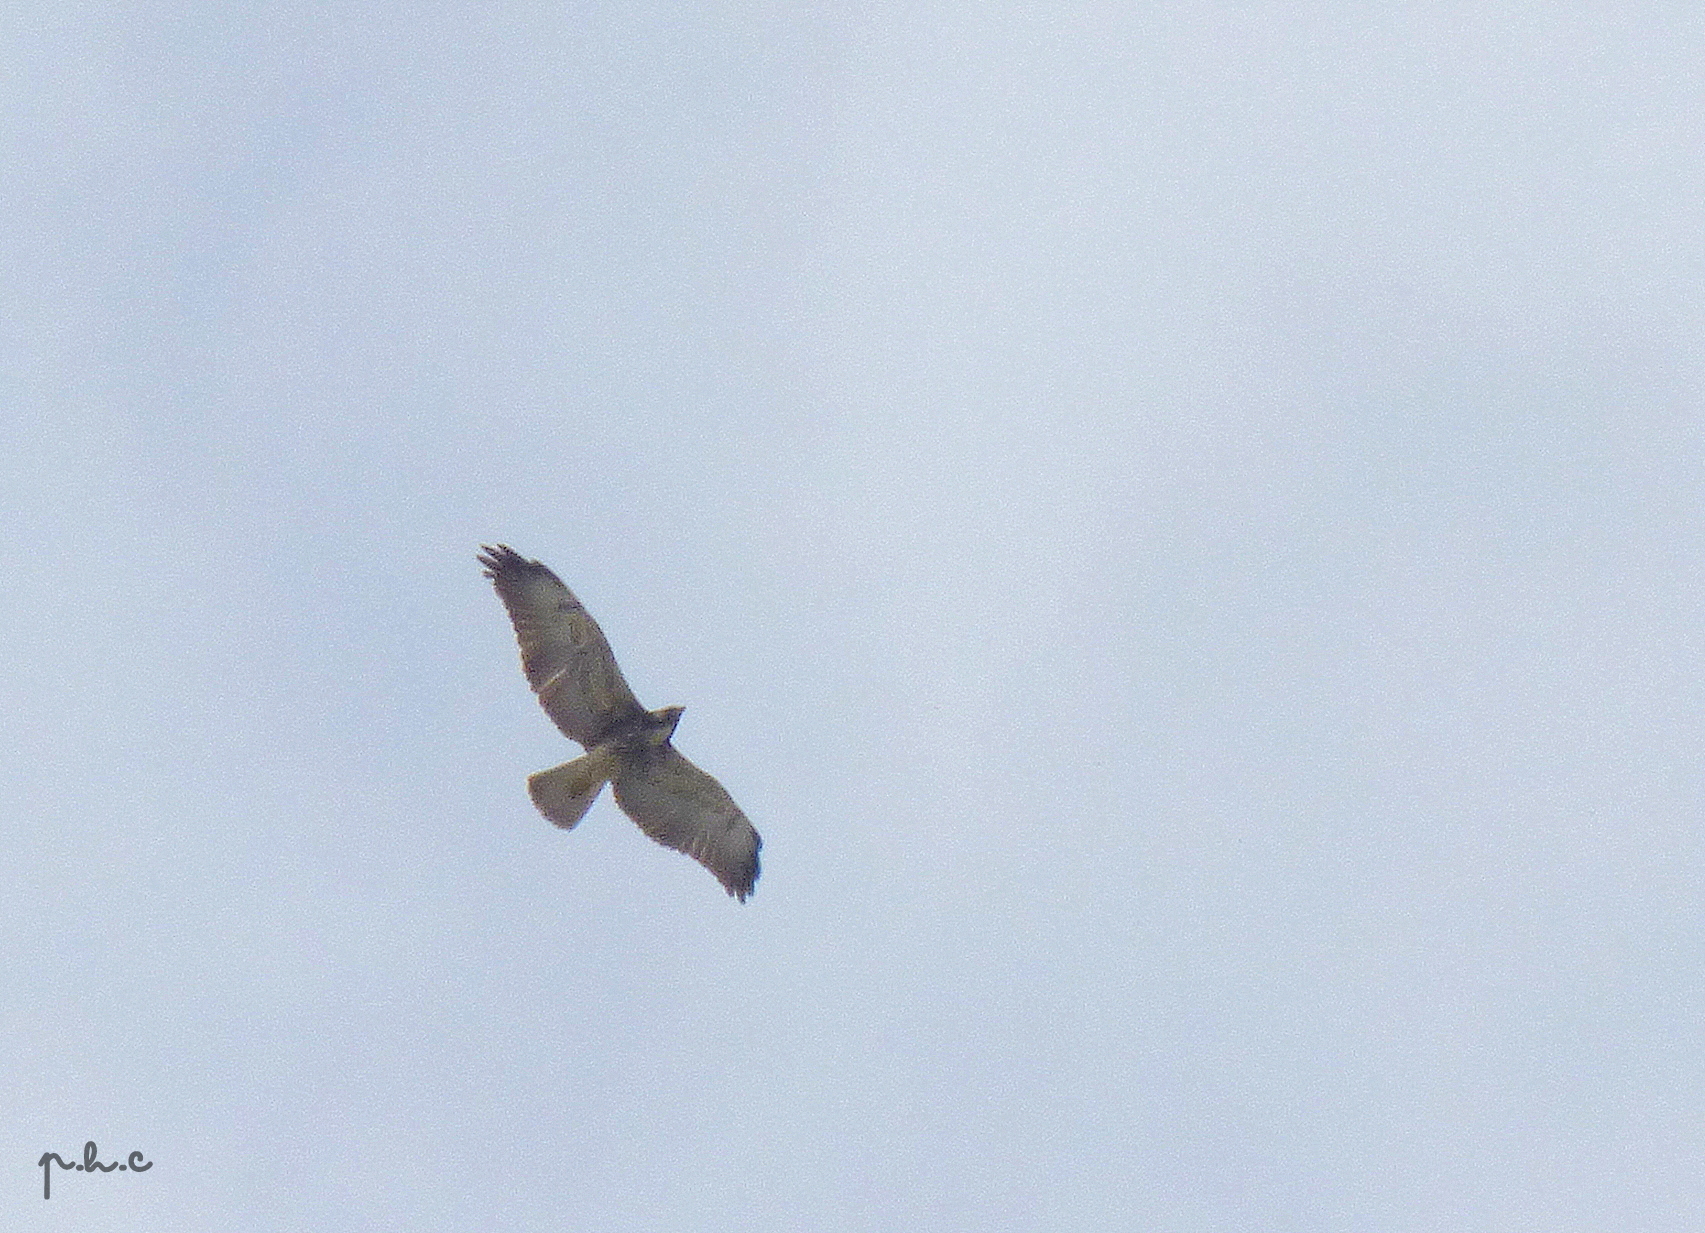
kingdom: Animalia
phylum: Chordata
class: Aves
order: Accipitriformes
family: Accipitridae
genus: Buteo
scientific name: Buteo albicaudatus
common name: White-tailed hawk
